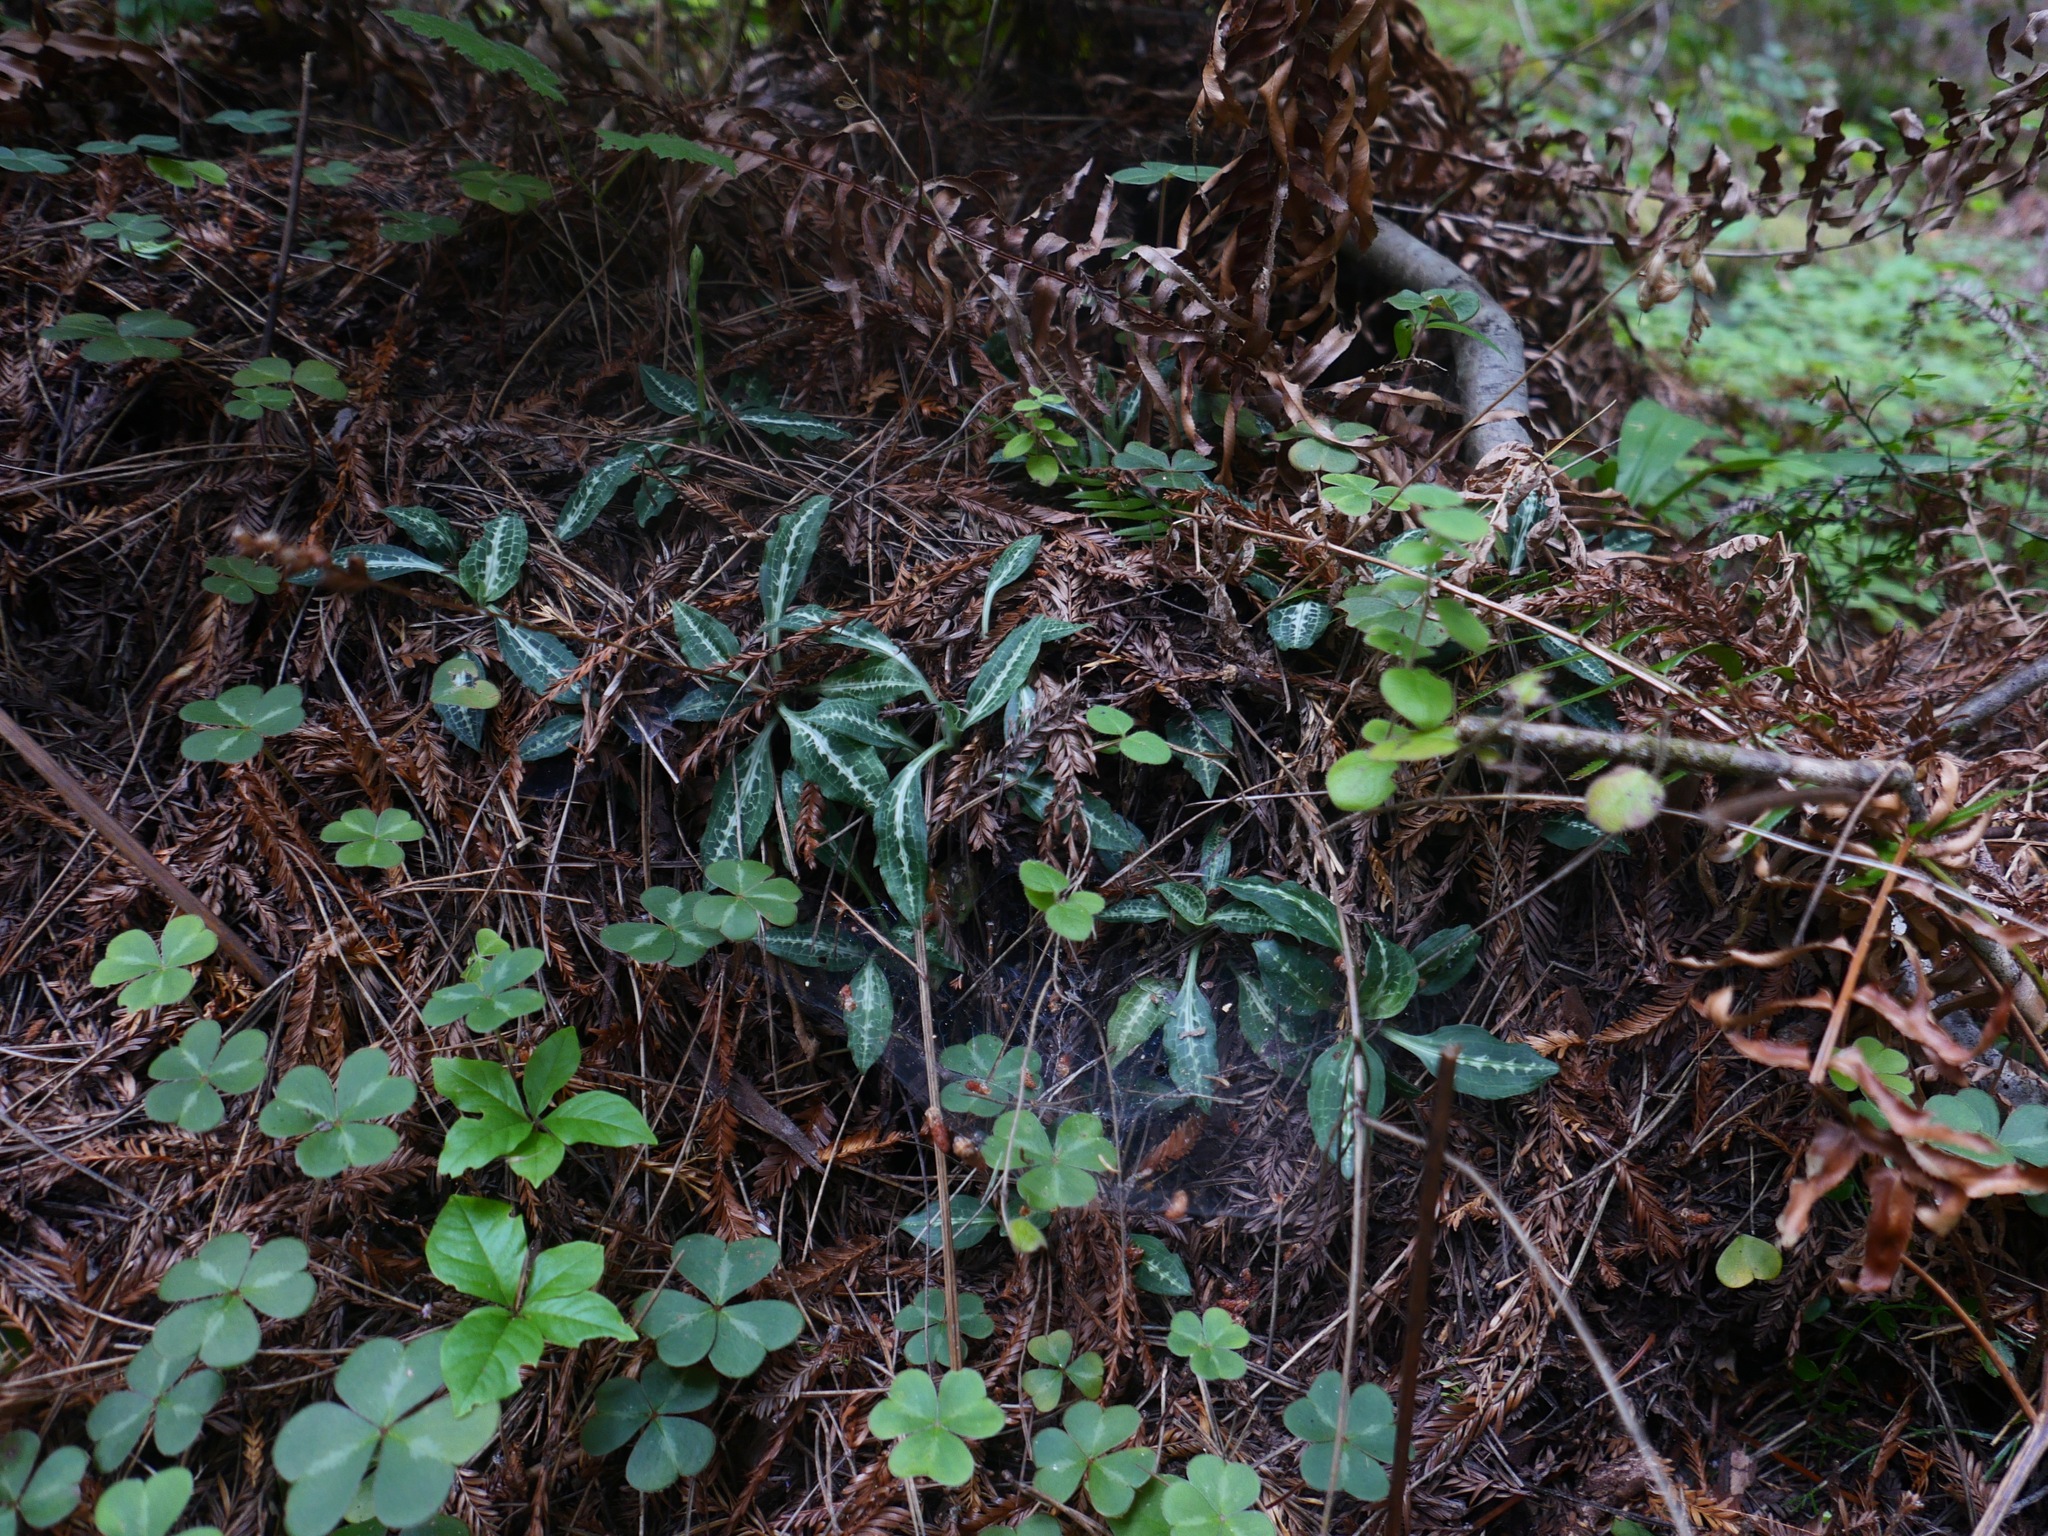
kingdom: Plantae
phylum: Tracheophyta
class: Liliopsida
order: Asparagales
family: Orchidaceae
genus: Goodyera
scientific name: Goodyera oblongifolia
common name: Giant rattlesnake-plantain
